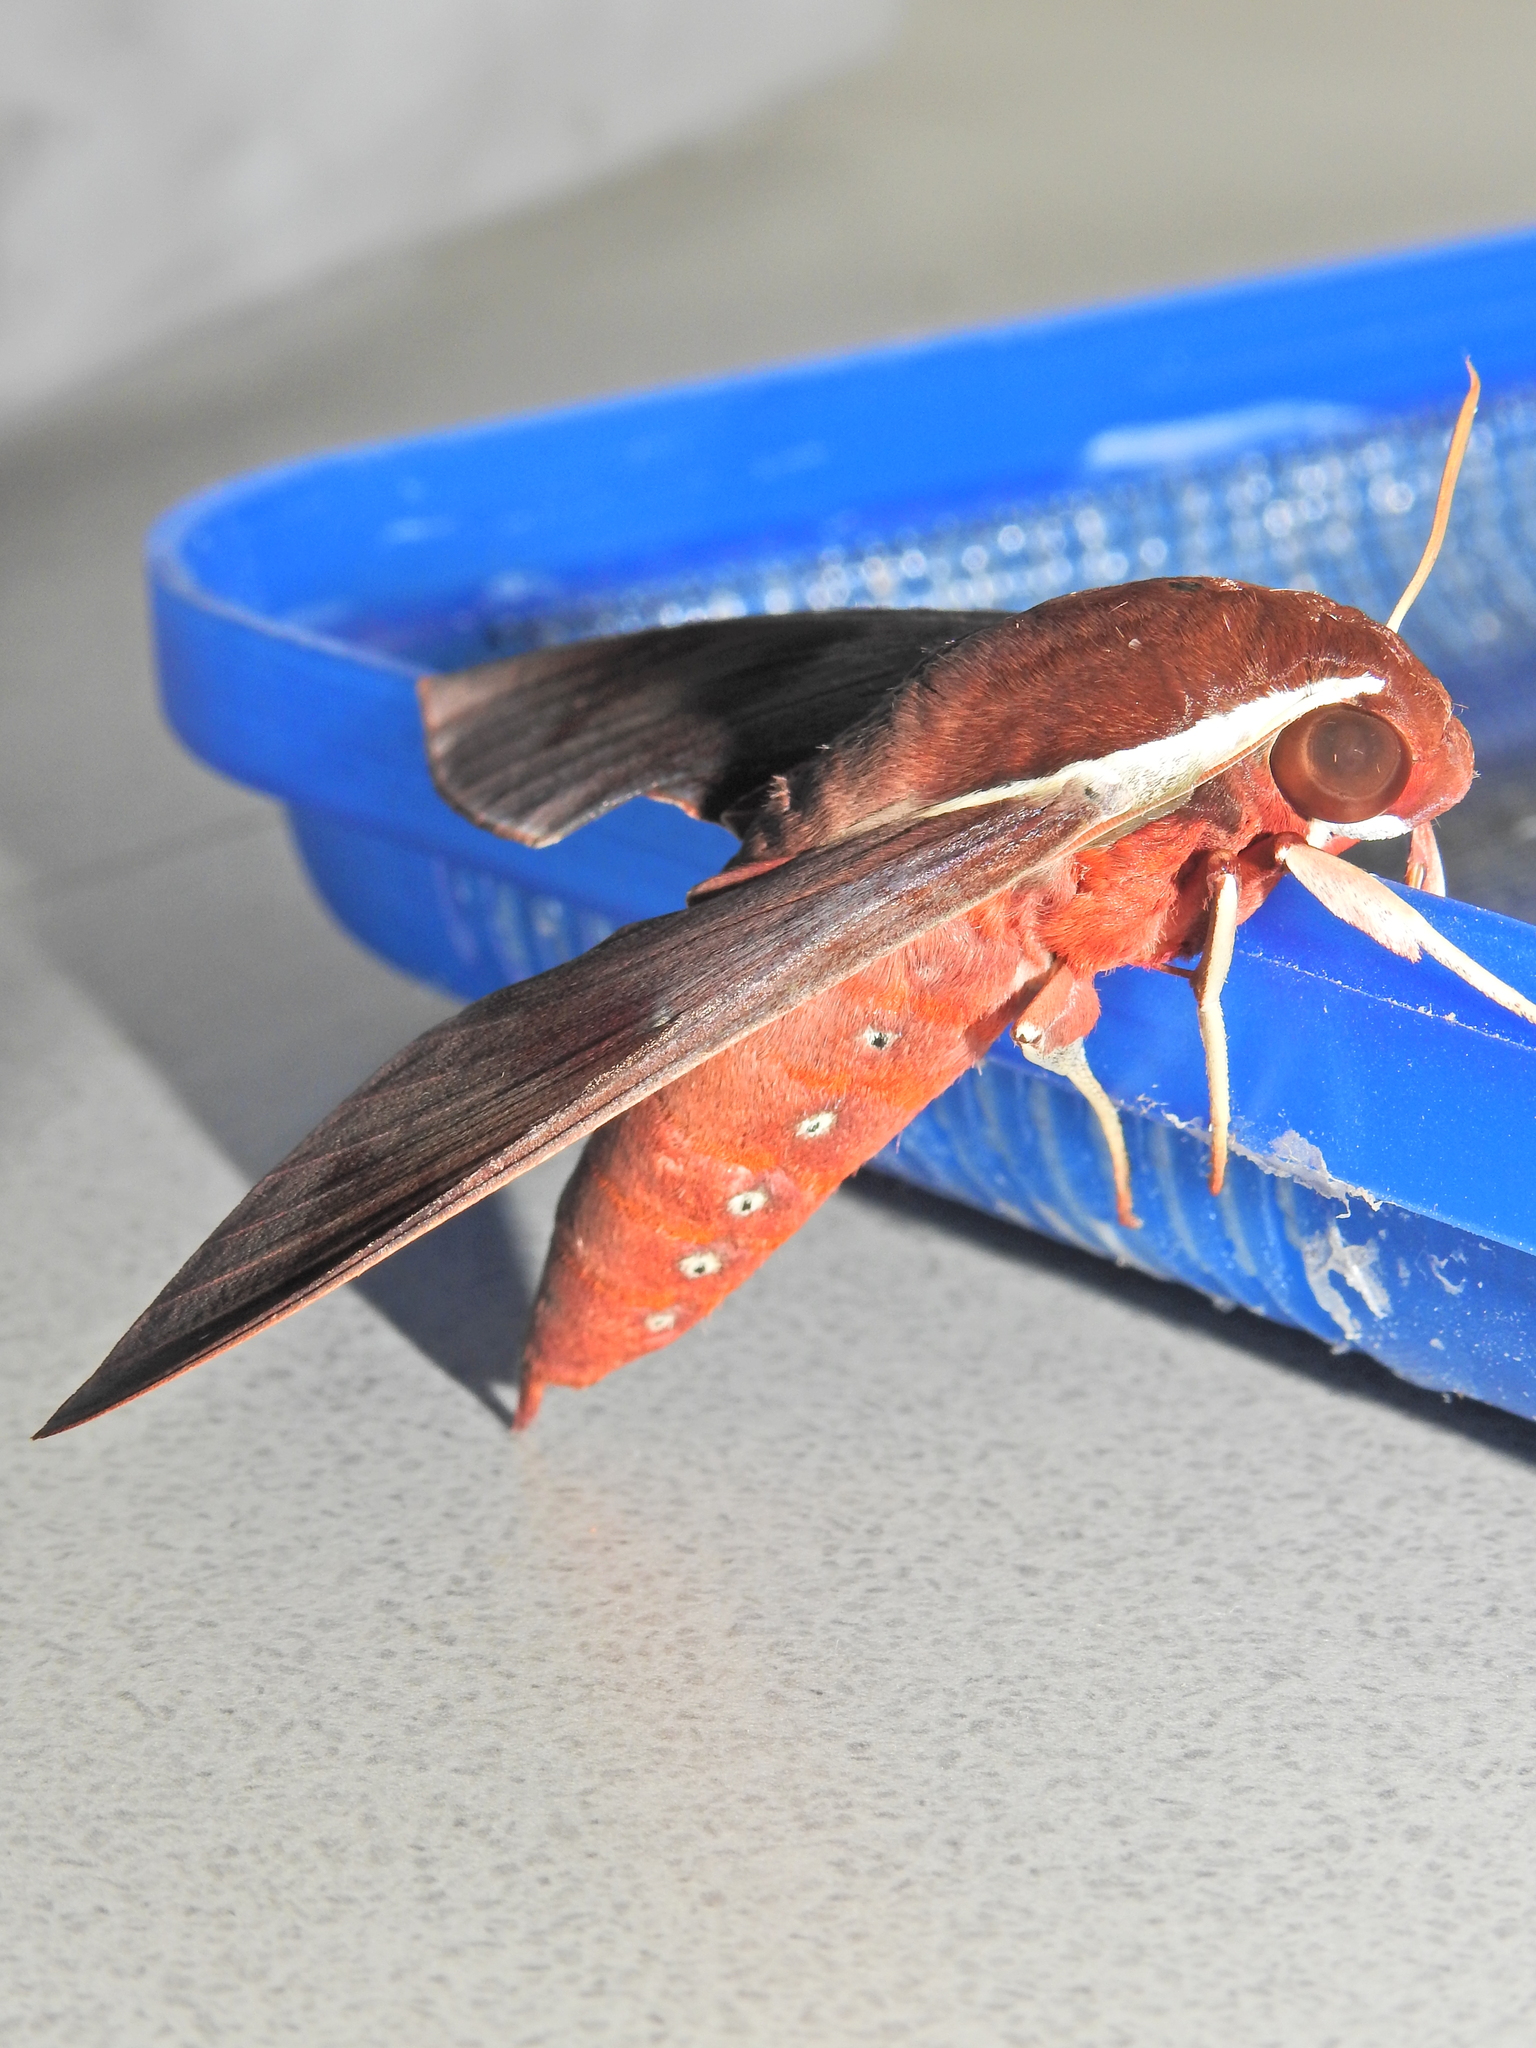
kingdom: Animalia
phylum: Arthropoda
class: Insecta
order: Lepidoptera
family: Sphingidae
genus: Gnathothlibus
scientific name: Gnathothlibus eras
